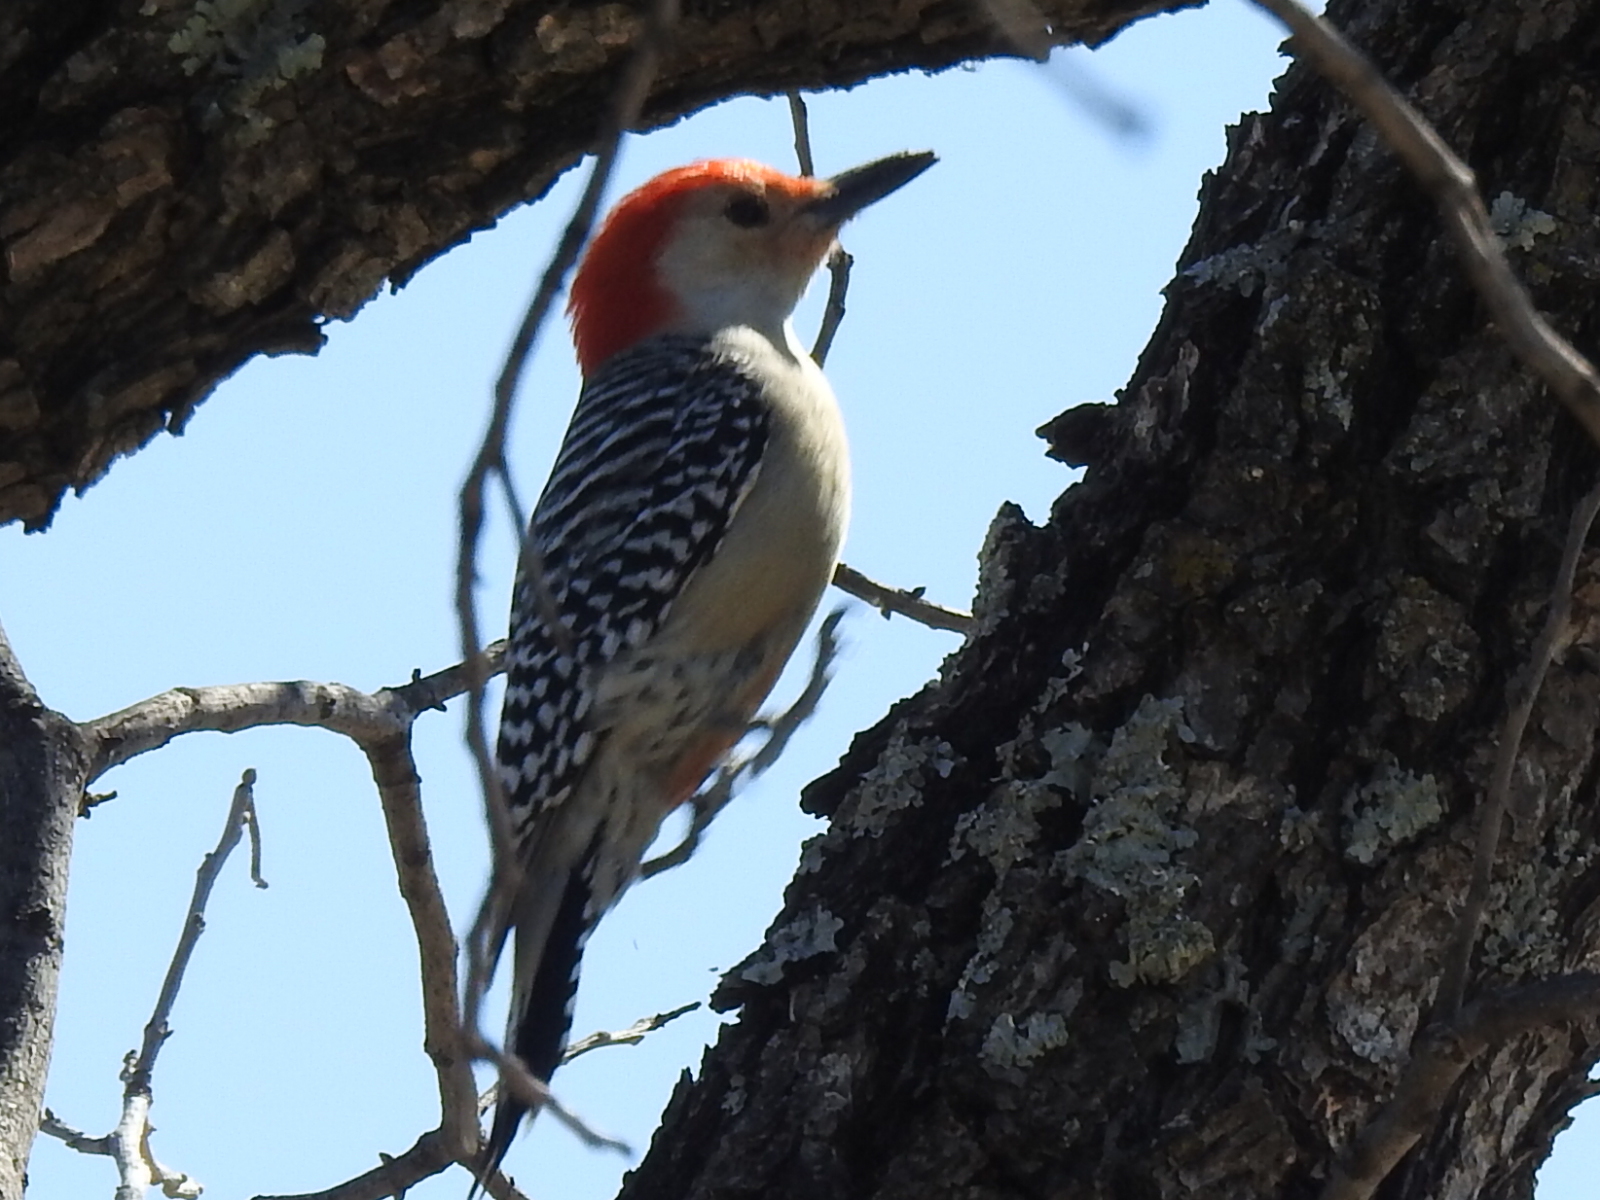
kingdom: Animalia
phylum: Chordata
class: Aves
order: Piciformes
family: Picidae
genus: Melanerpes
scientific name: Melanerpes carolinus
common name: Red-bellied woodpecker
